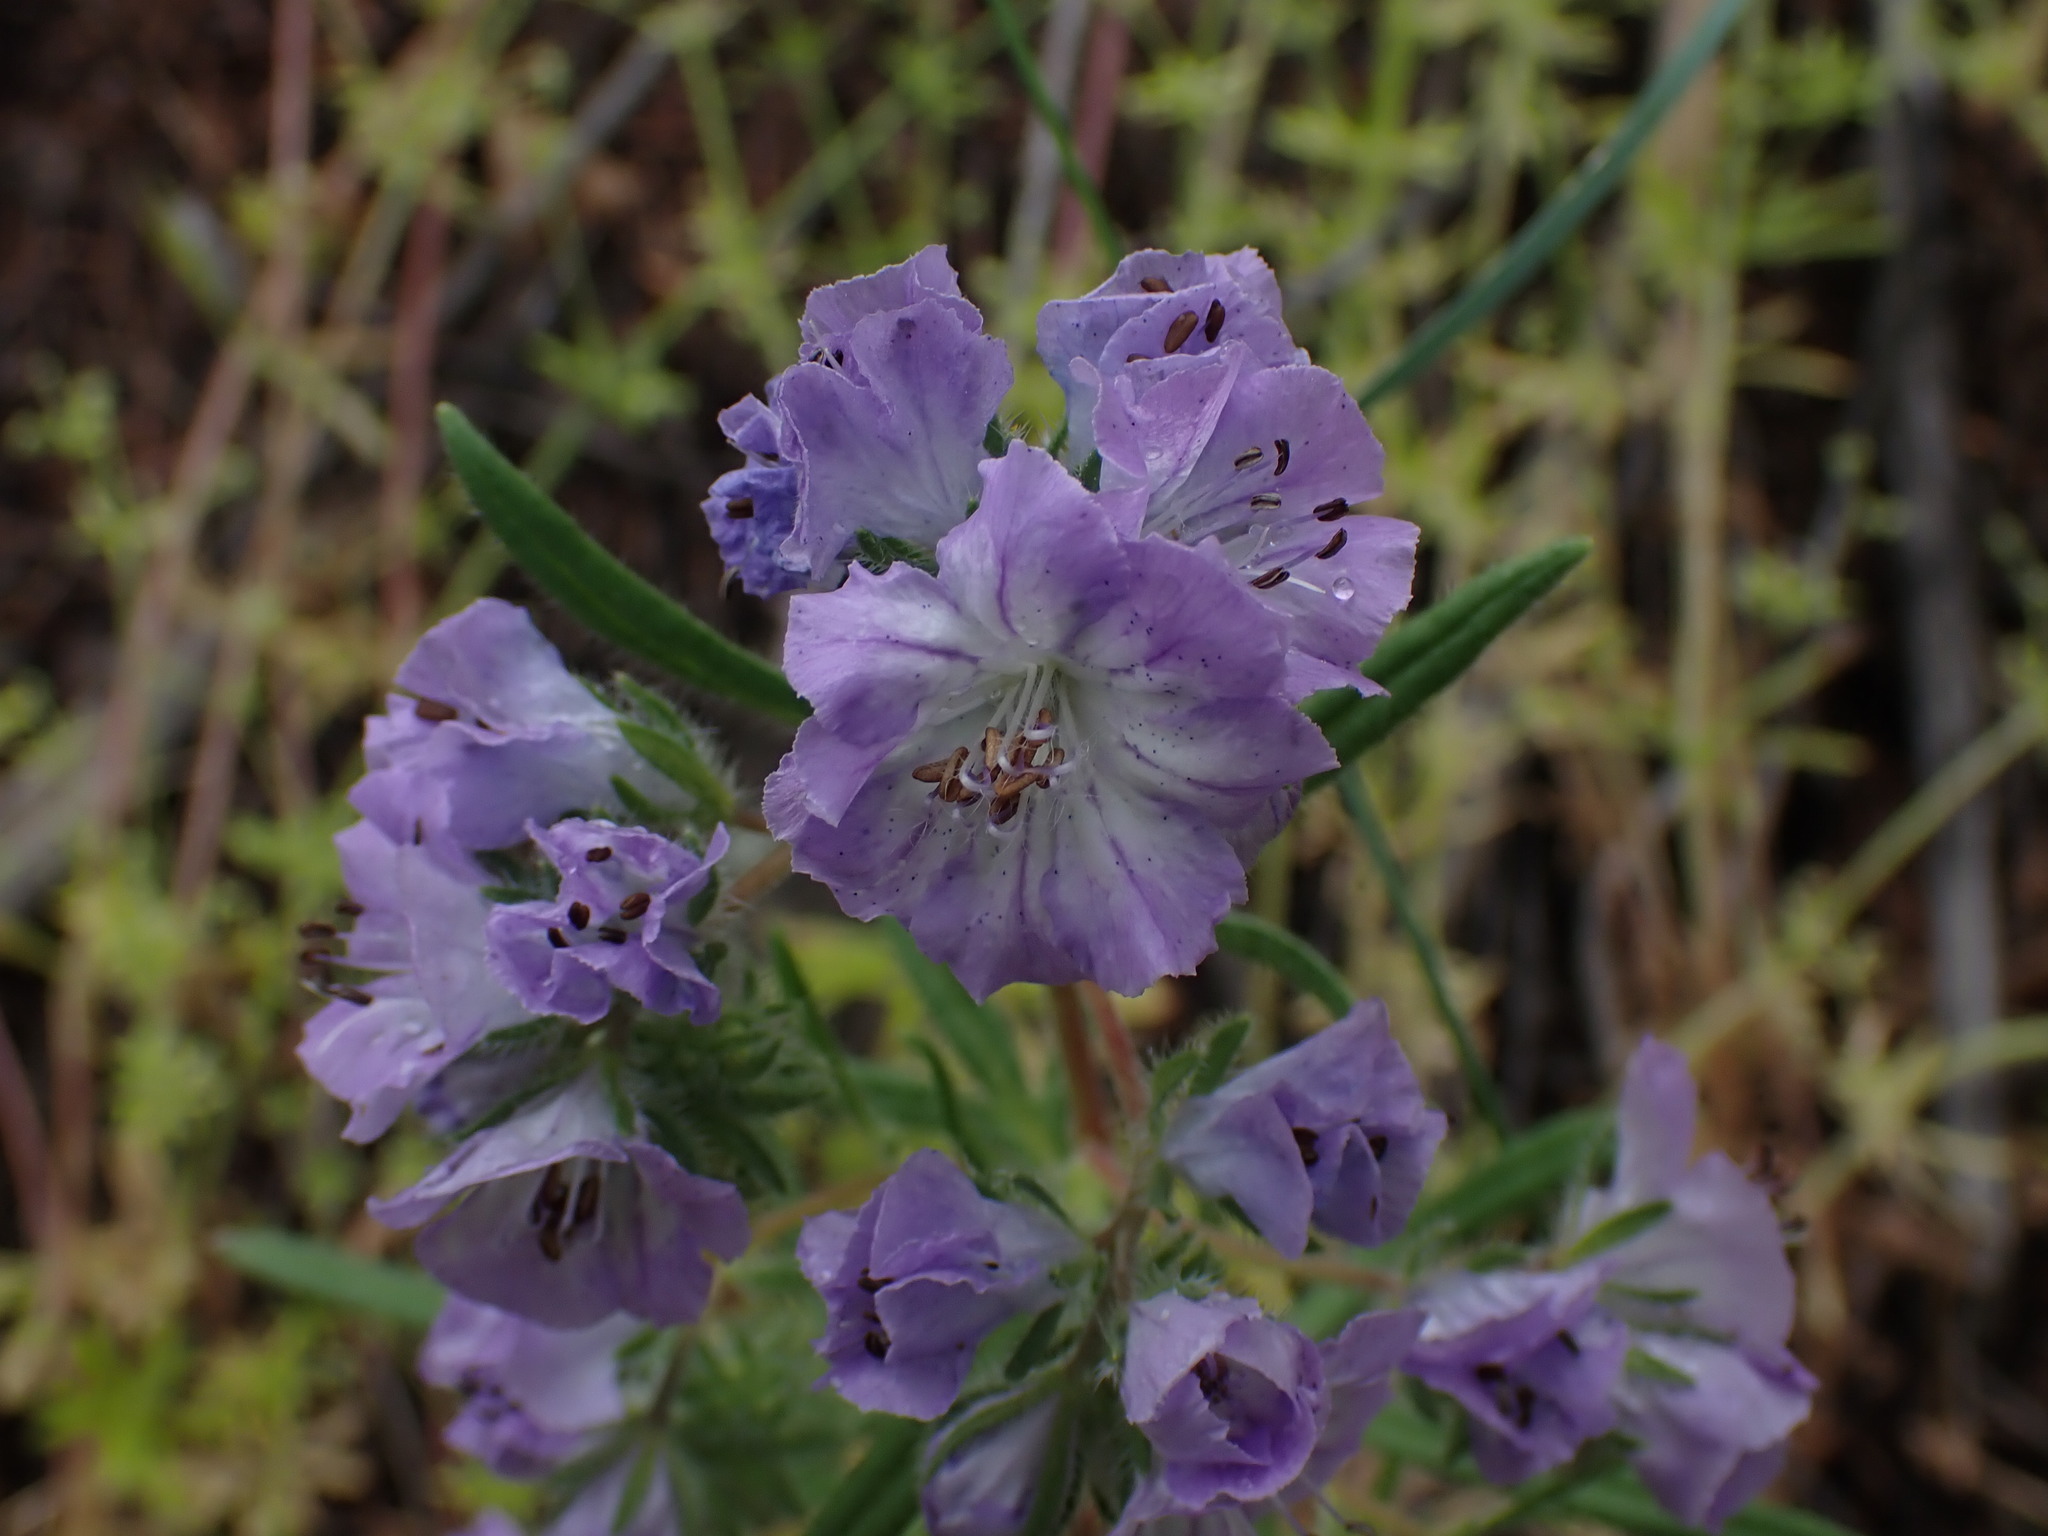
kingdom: Plantae
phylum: Tracheophyta
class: Magnoliopsida
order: Boraginales
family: Hydrophyllaceae
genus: Phacelia
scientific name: Phacelia linearis
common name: Linear-leaved phacelia
